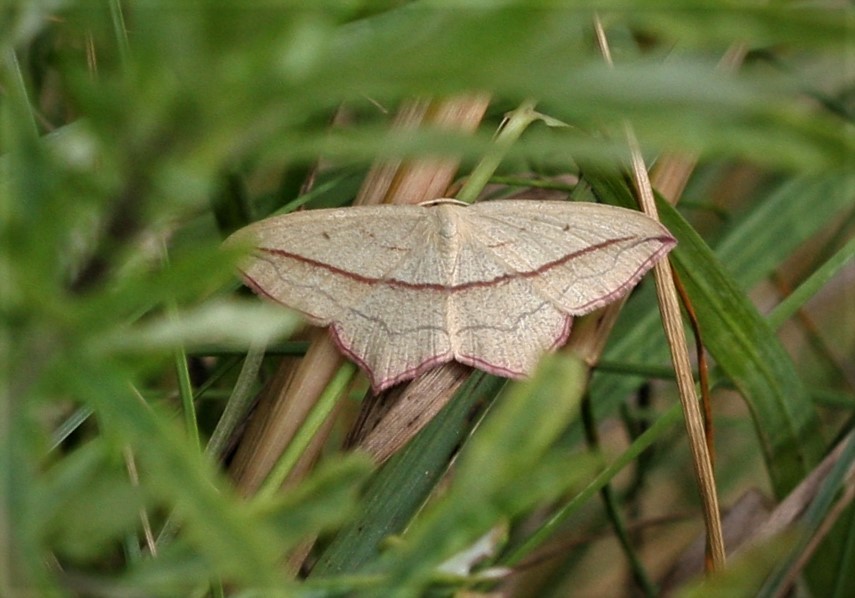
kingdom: Animalia
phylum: Arthropoda
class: Insecta
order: Lepidoptera
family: Geometridae
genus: Timandra
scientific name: Timandra comae
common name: Blood-vein
